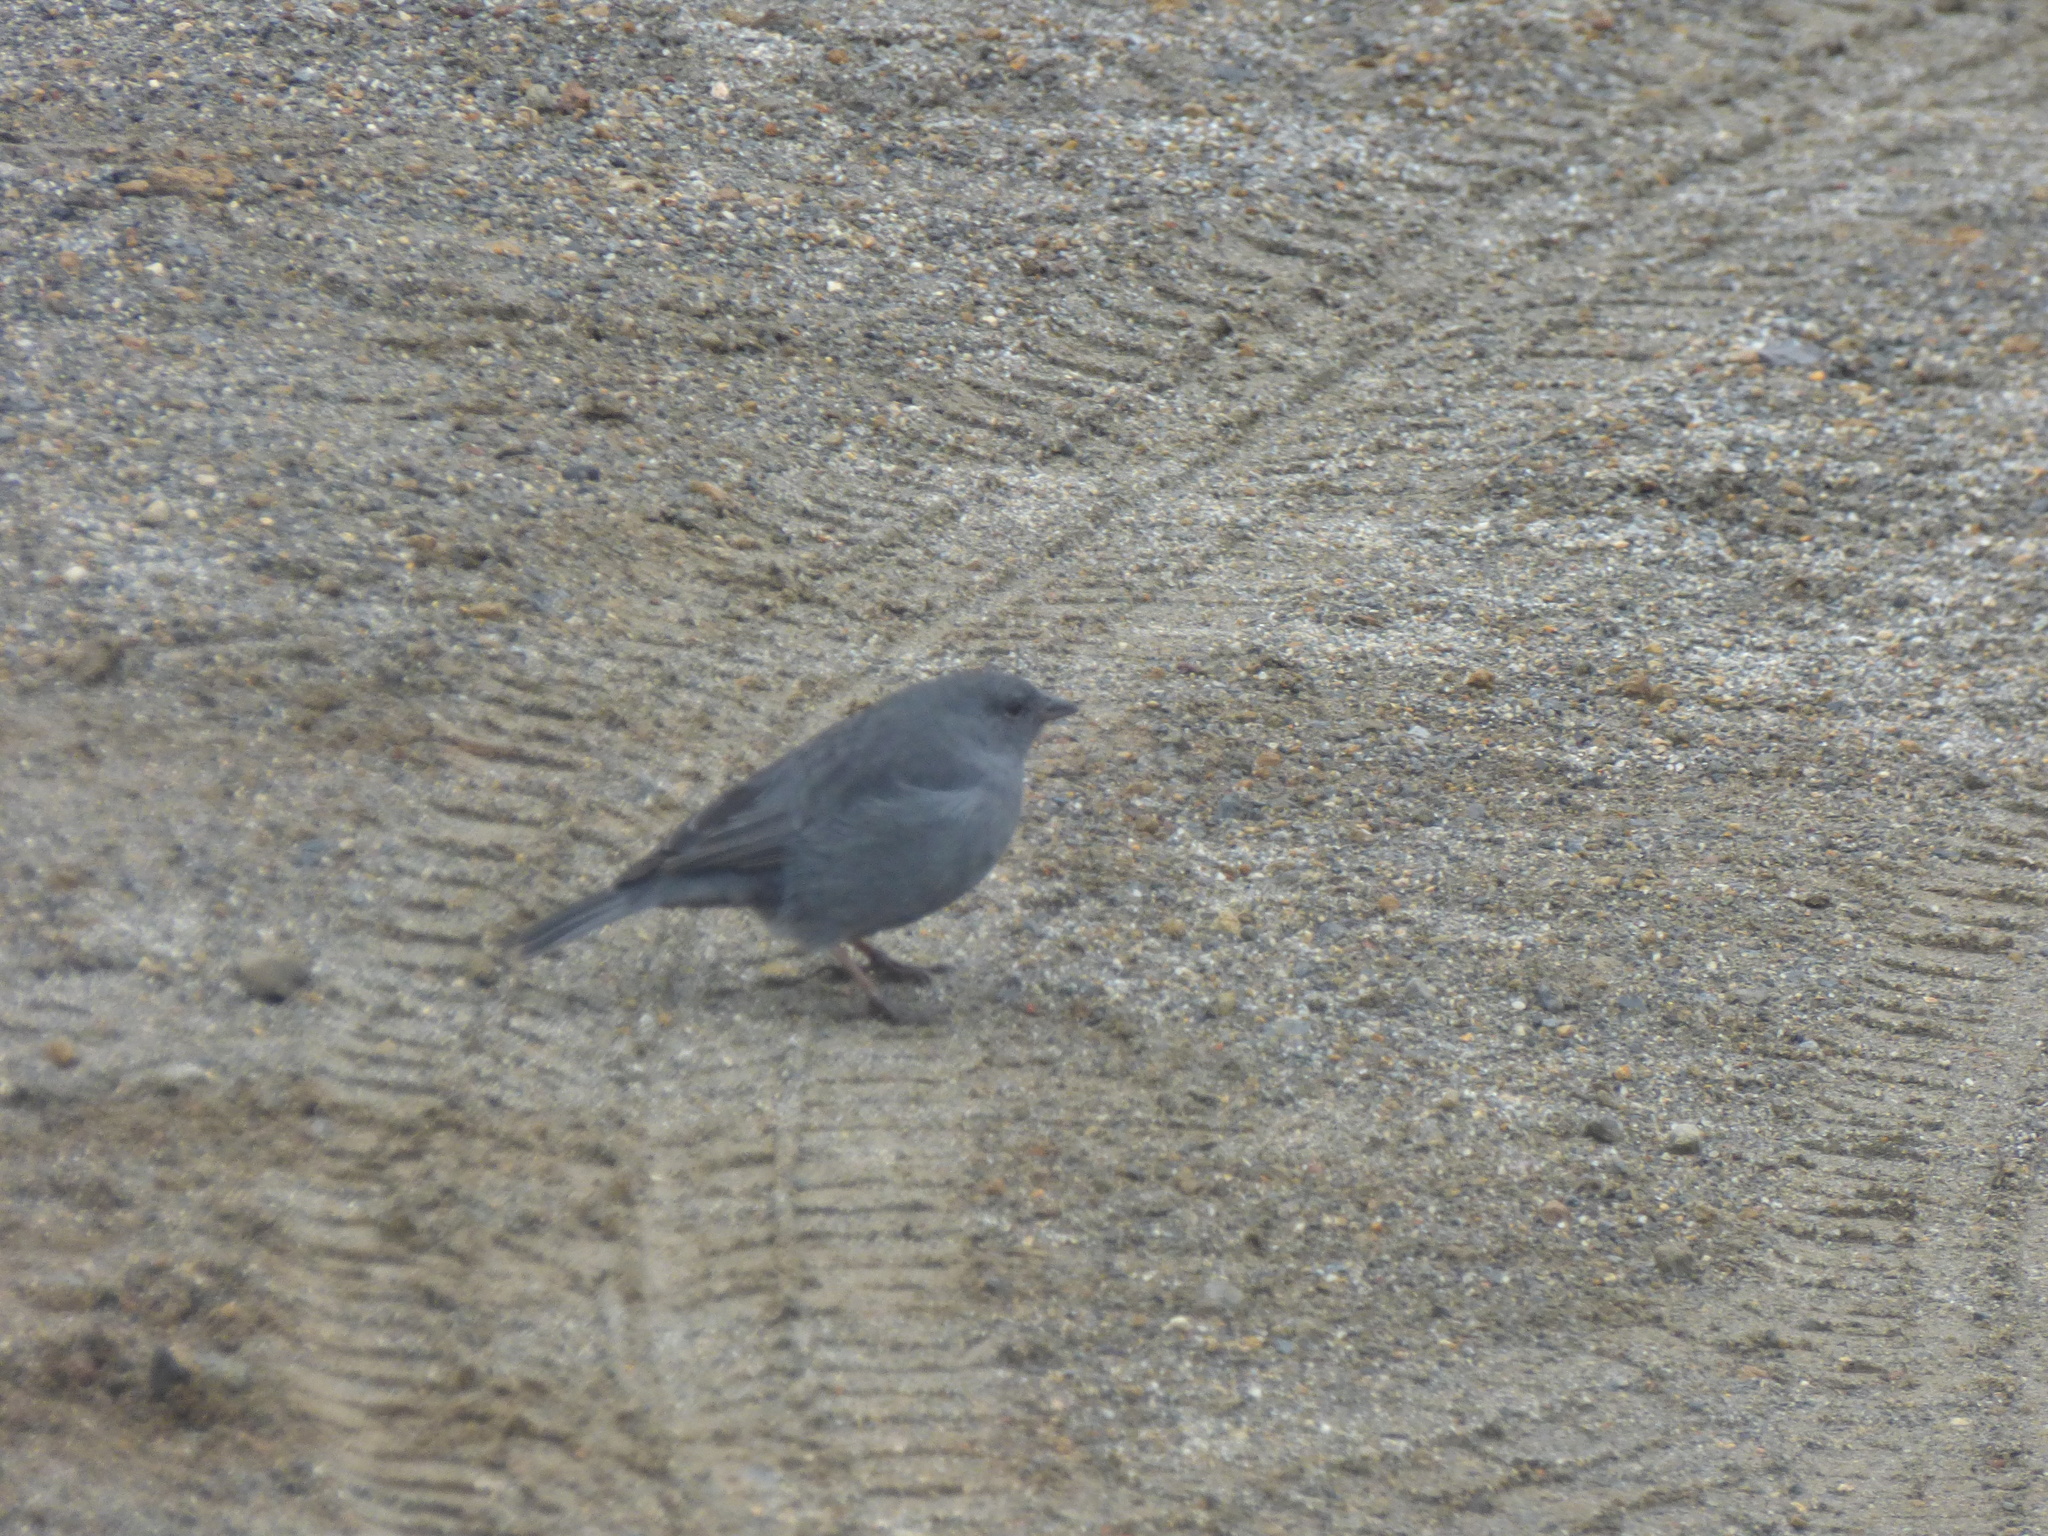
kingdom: Animalia
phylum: Chordata
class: Aves
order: Passeriformes
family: Thraupidae
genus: Geospizopsis
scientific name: Geospizopsis unicolor
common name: Plumbeous sierra-finch
